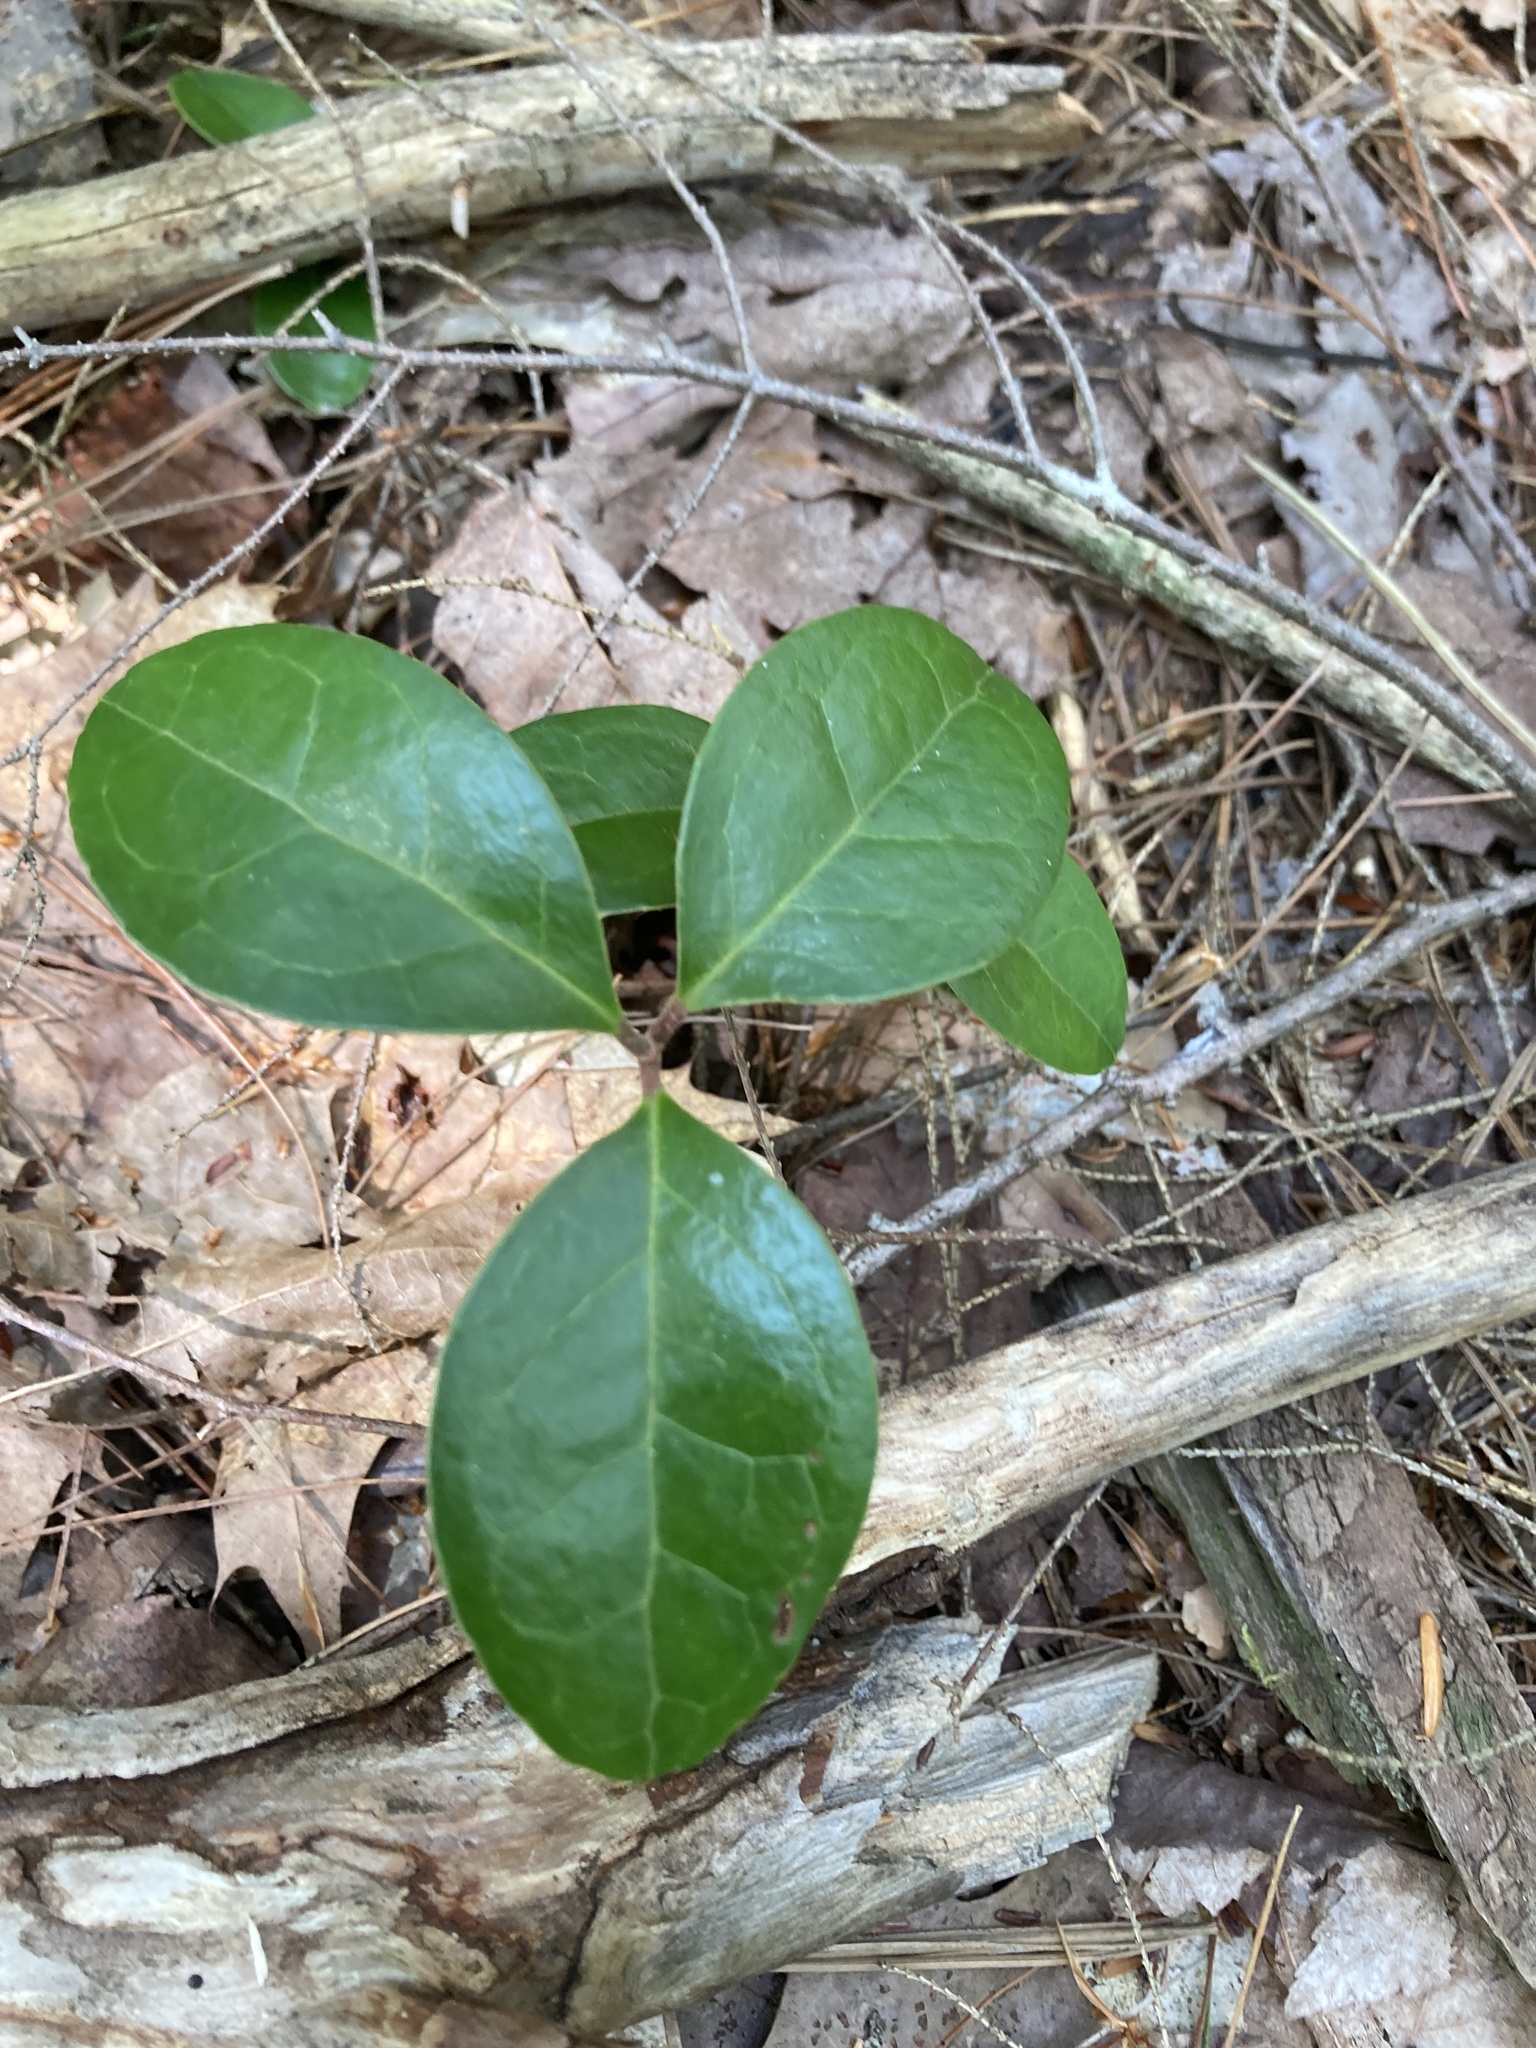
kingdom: Plantae
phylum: Tracheophyta
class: Magnoliopsida
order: Ericales
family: Ericaceae
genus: Gaultheria
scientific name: Gaultheria procumbens
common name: Checkerberry
